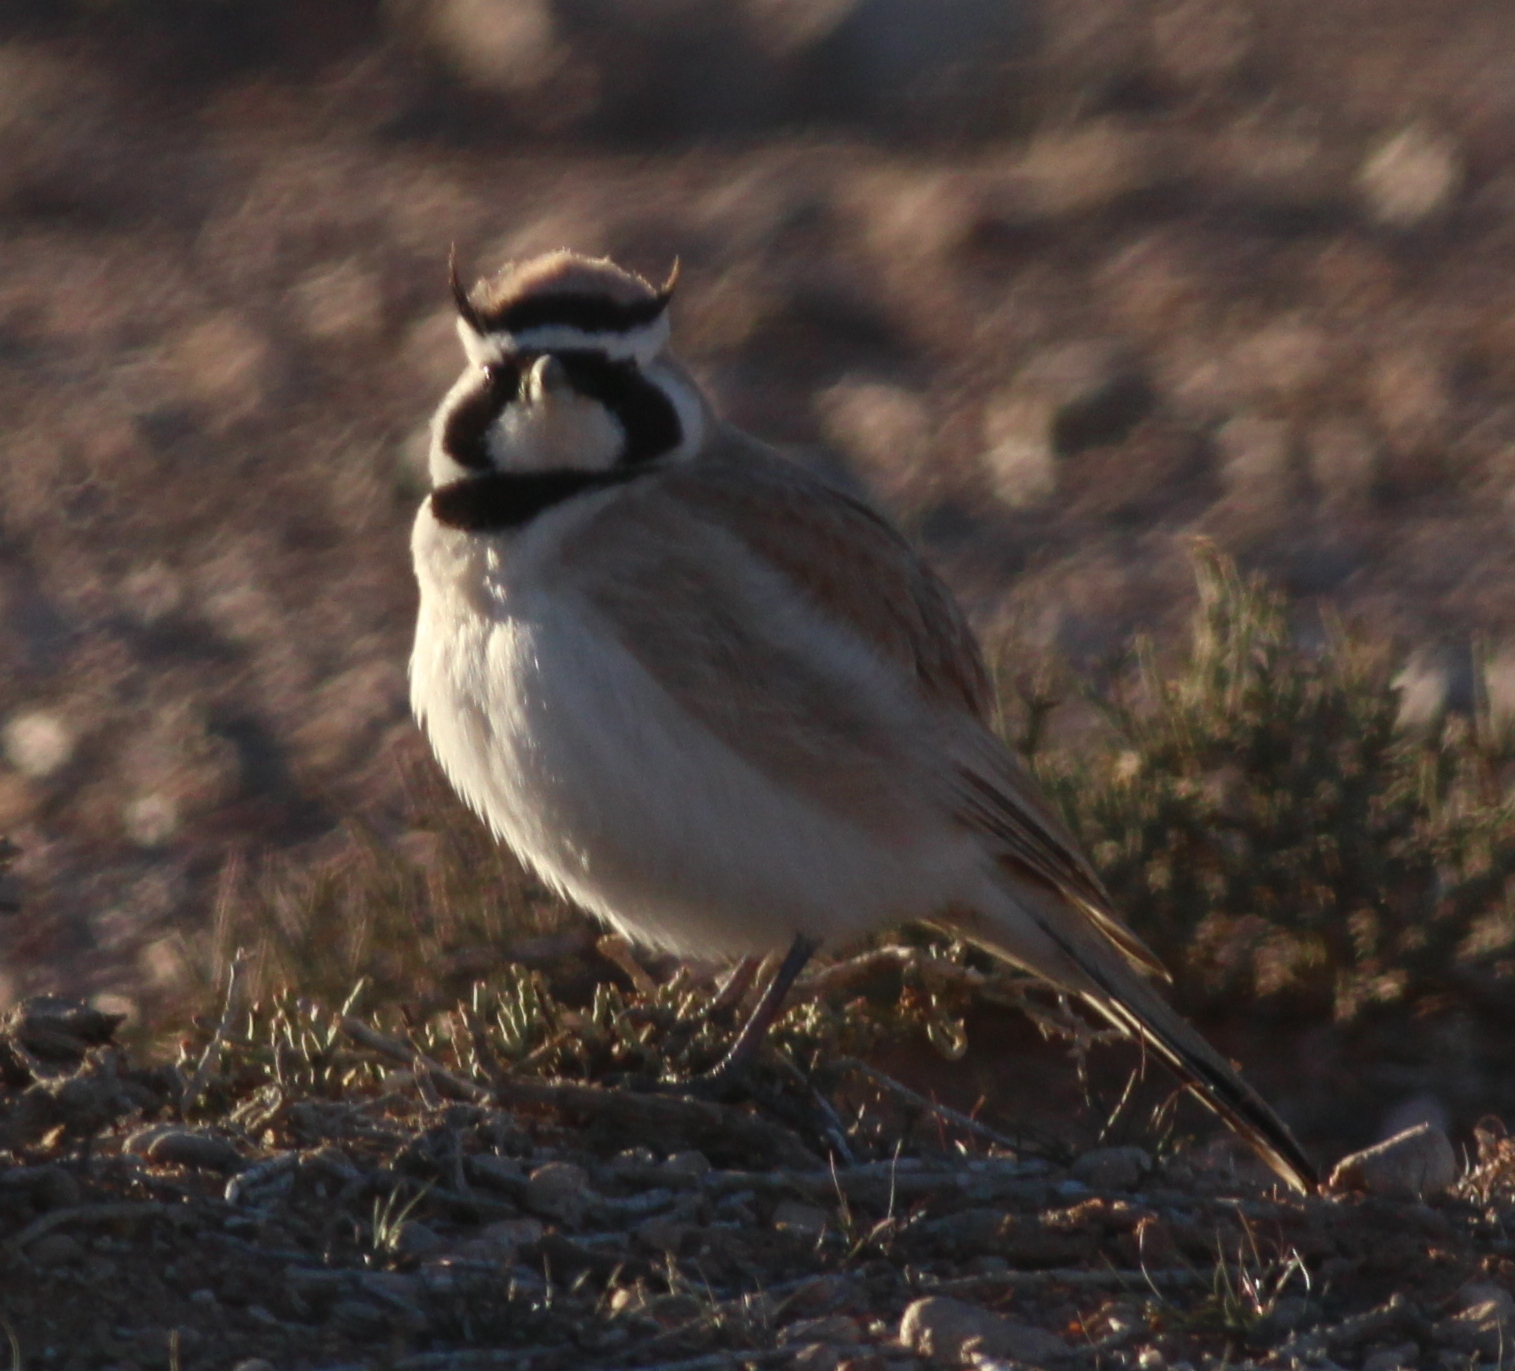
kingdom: Animalia
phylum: Chordata
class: Aves
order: Passeriformes
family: Alaudidae
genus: Eremophila
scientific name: Eremophila bilopha
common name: Temminck's lark
